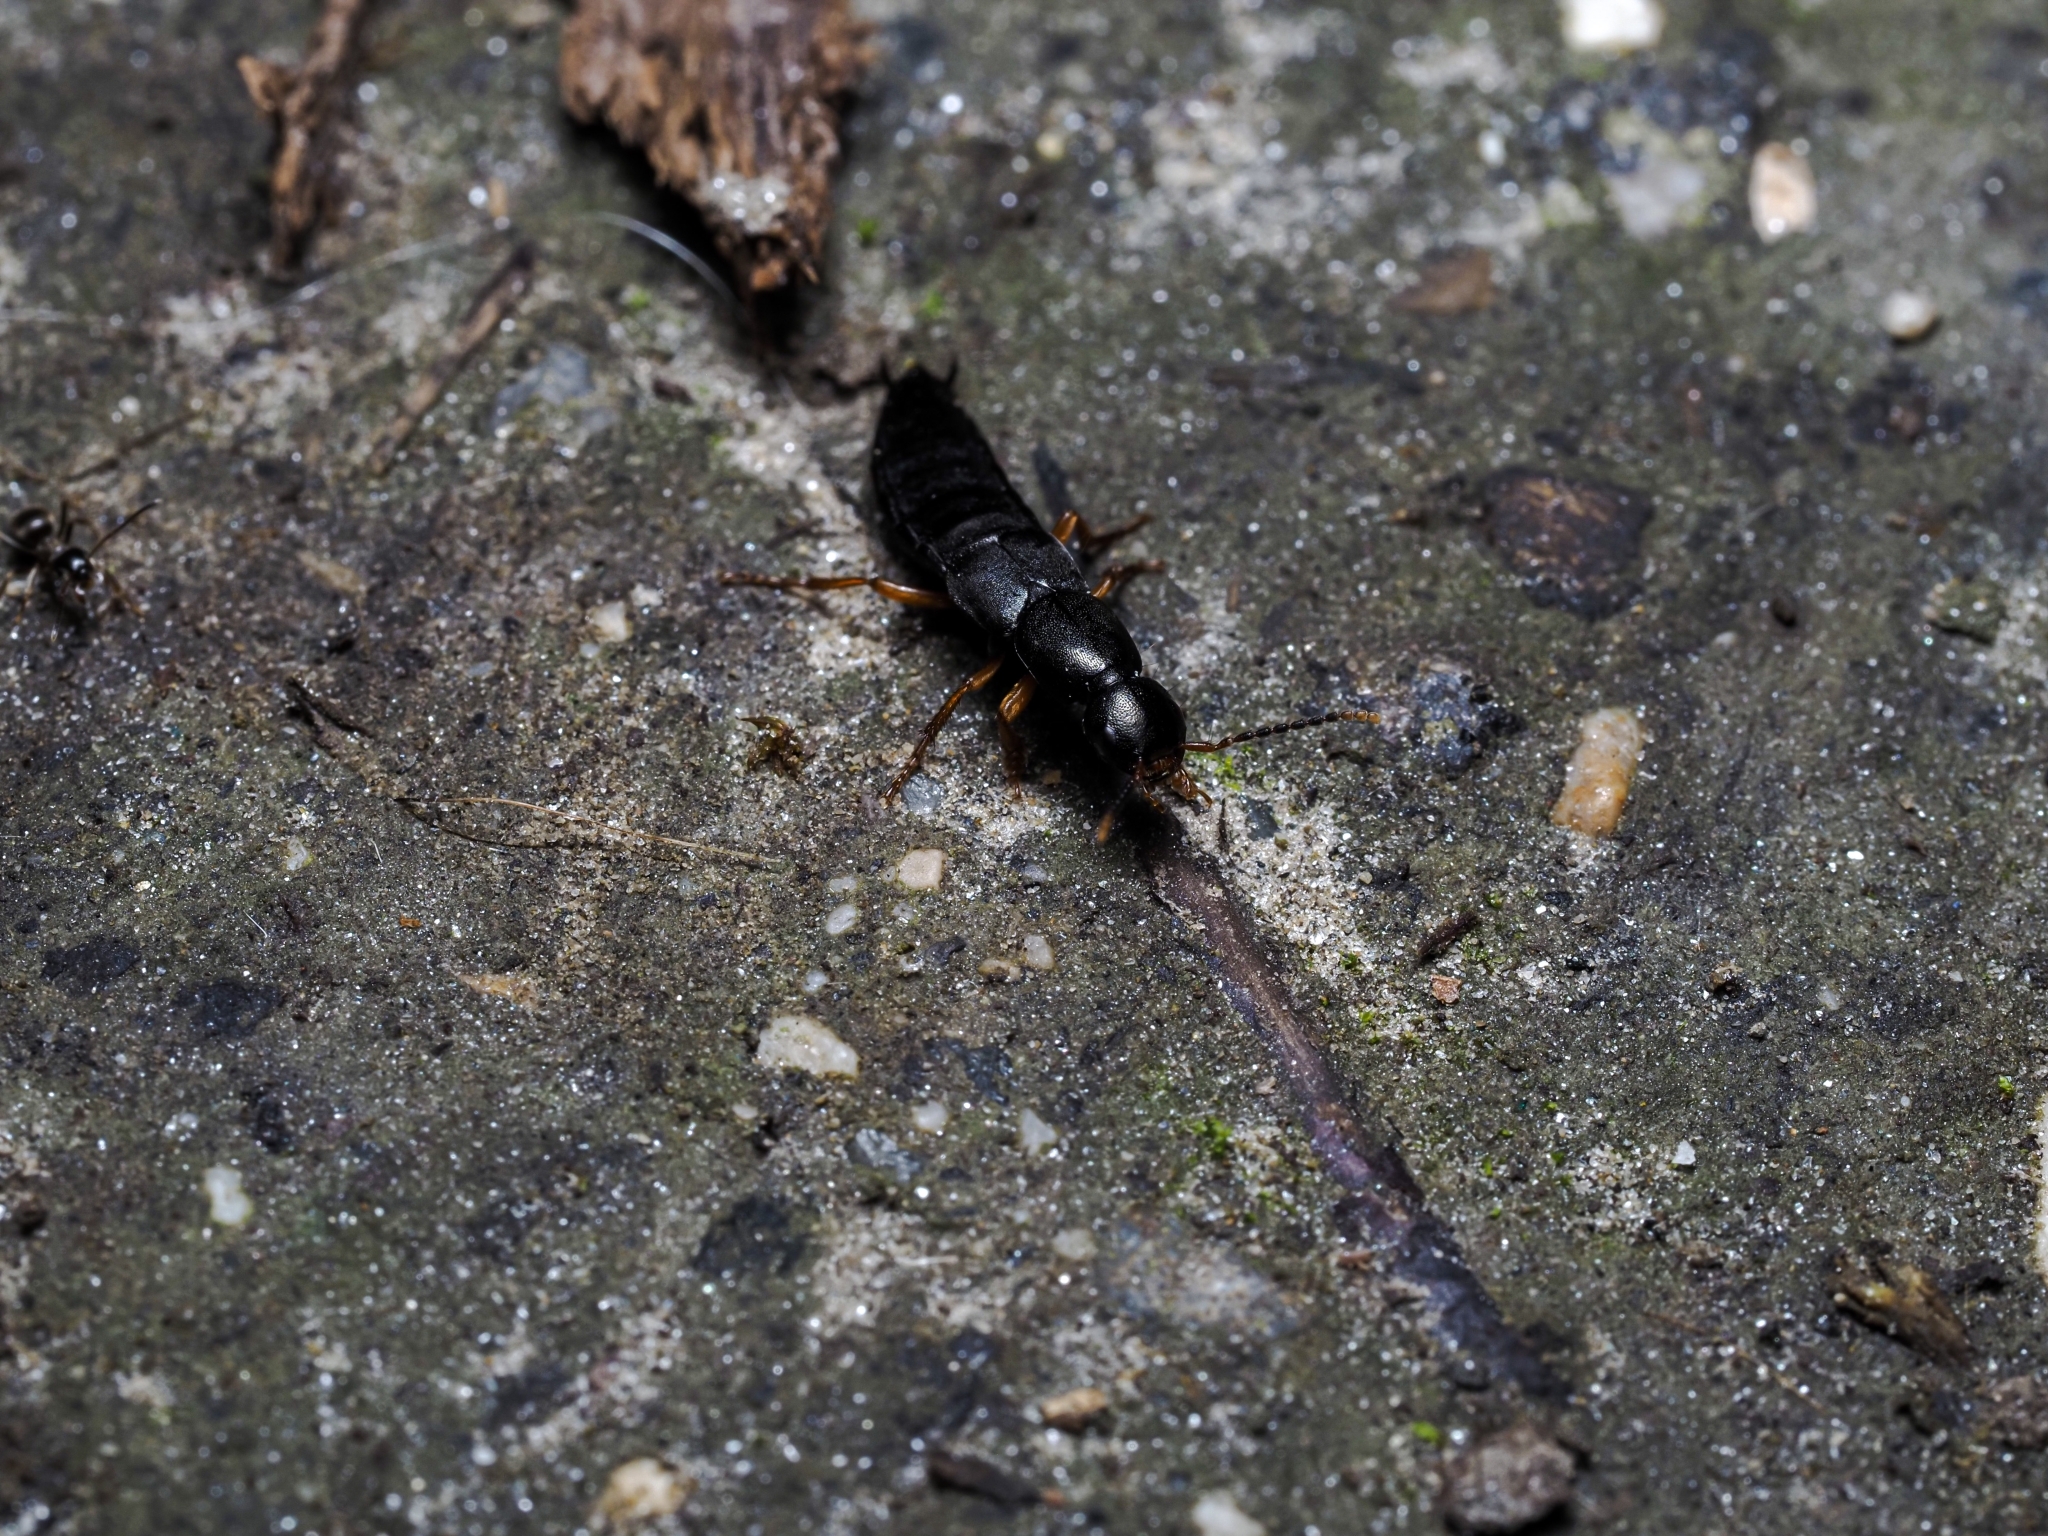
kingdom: Animalia
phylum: Arthropoda
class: Insecta
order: Coleoptera
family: Staphylinidae
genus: Ocypus
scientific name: Ocypus brunnipes
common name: Rove beetle
